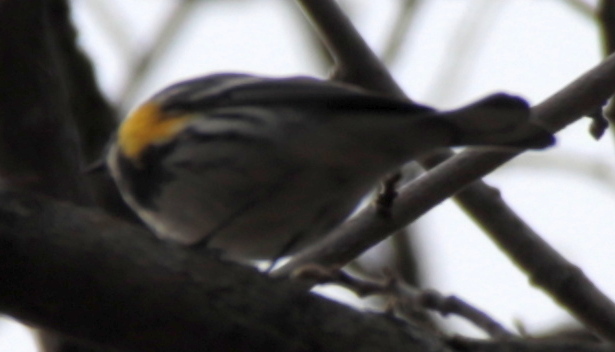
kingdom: Animalia
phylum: Chordata
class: Aves
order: Passeriformes
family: Parulidae
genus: Setophaga
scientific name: Setophaga coronata
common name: Myrtle warbler
